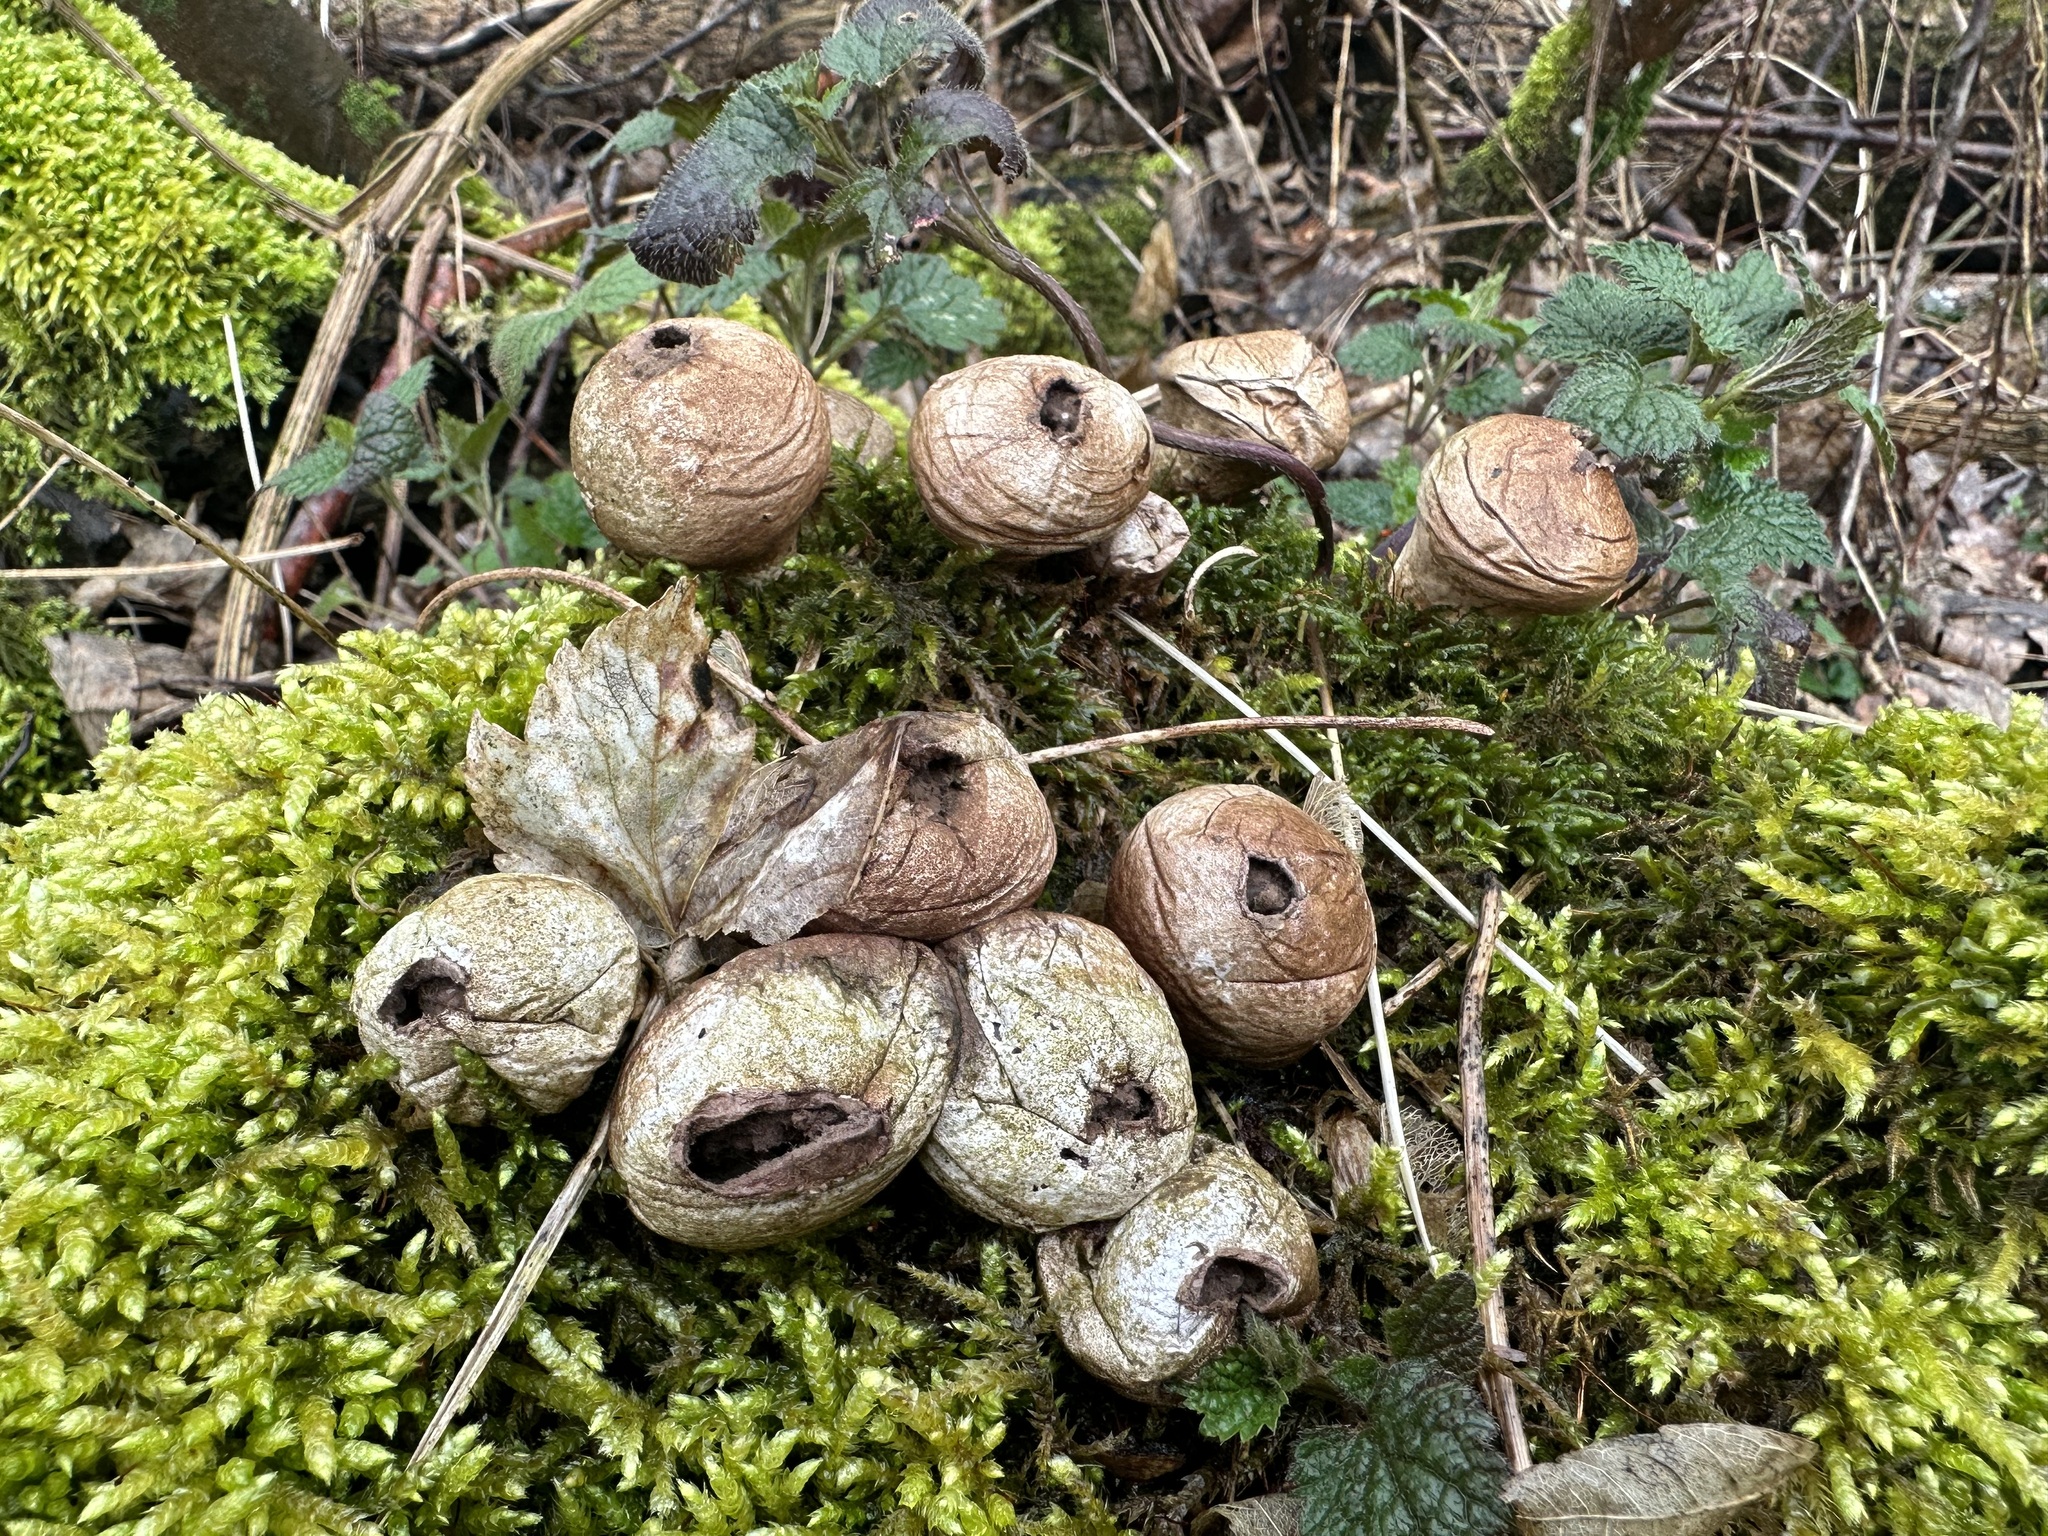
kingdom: Fungi
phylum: Basidiomycota
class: Agaricomycetes
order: Agaricales
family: Lycoperdaceae
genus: Apioperdon
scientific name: Apioperdon pyriforme
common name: Pear-shaped puffball
